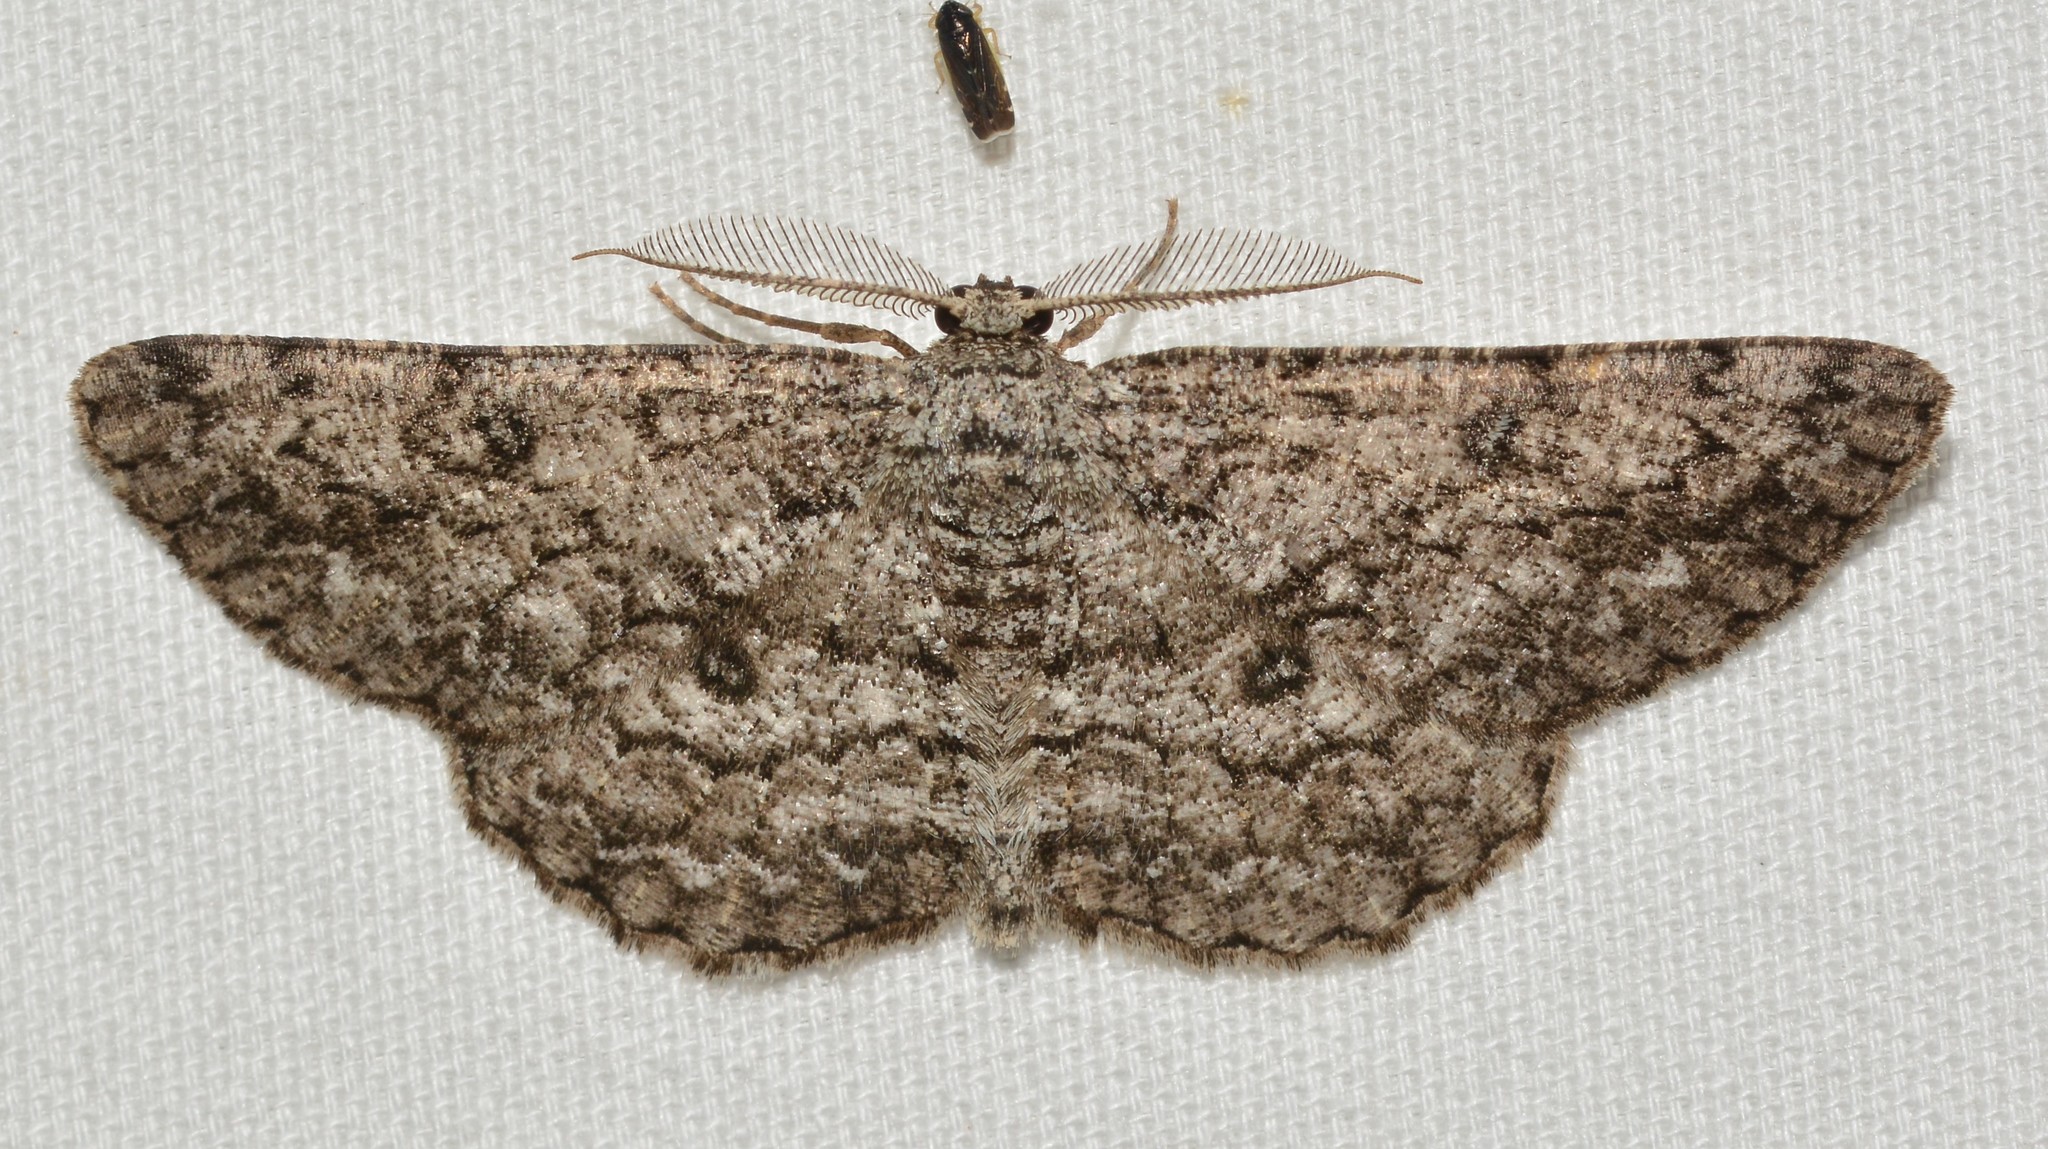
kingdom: Animalia
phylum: Arthropoda
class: Insecta
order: Lepidoptera
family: Geometridae
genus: Hypomecis
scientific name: Hypomecis umbrosaria
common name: Umber moth
